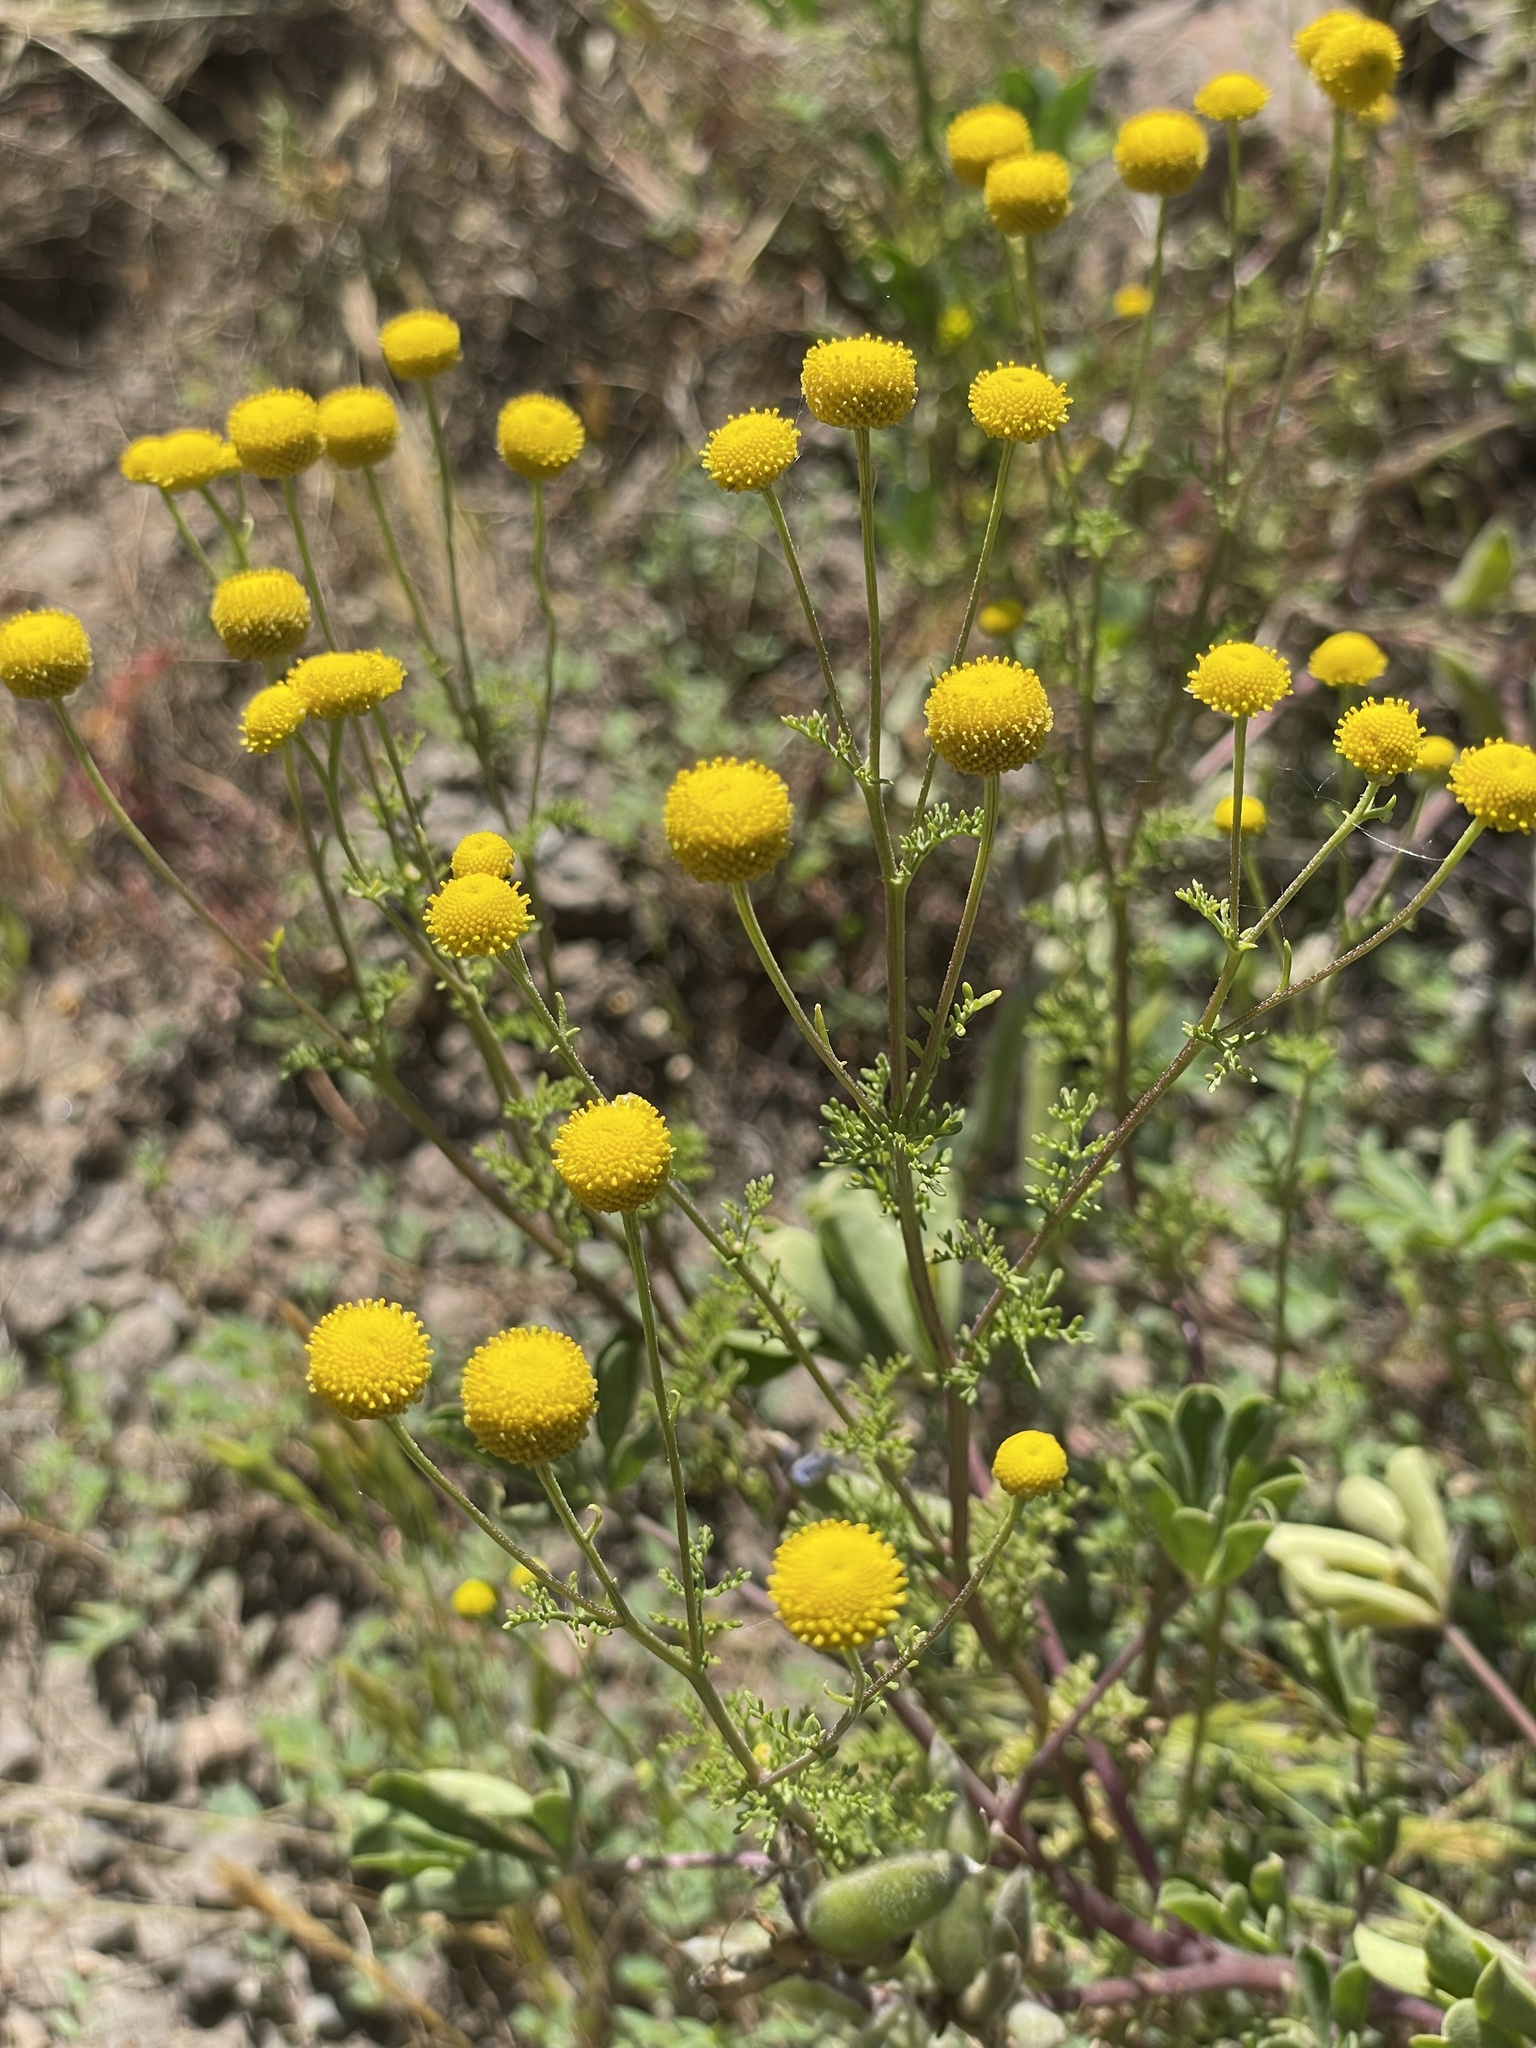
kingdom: Plantae
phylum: Tracheophyta
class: Magnoliopsida
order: Asterales
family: Asteraceae
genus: Oncosiphon
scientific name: Oncosiphon pilulifer
